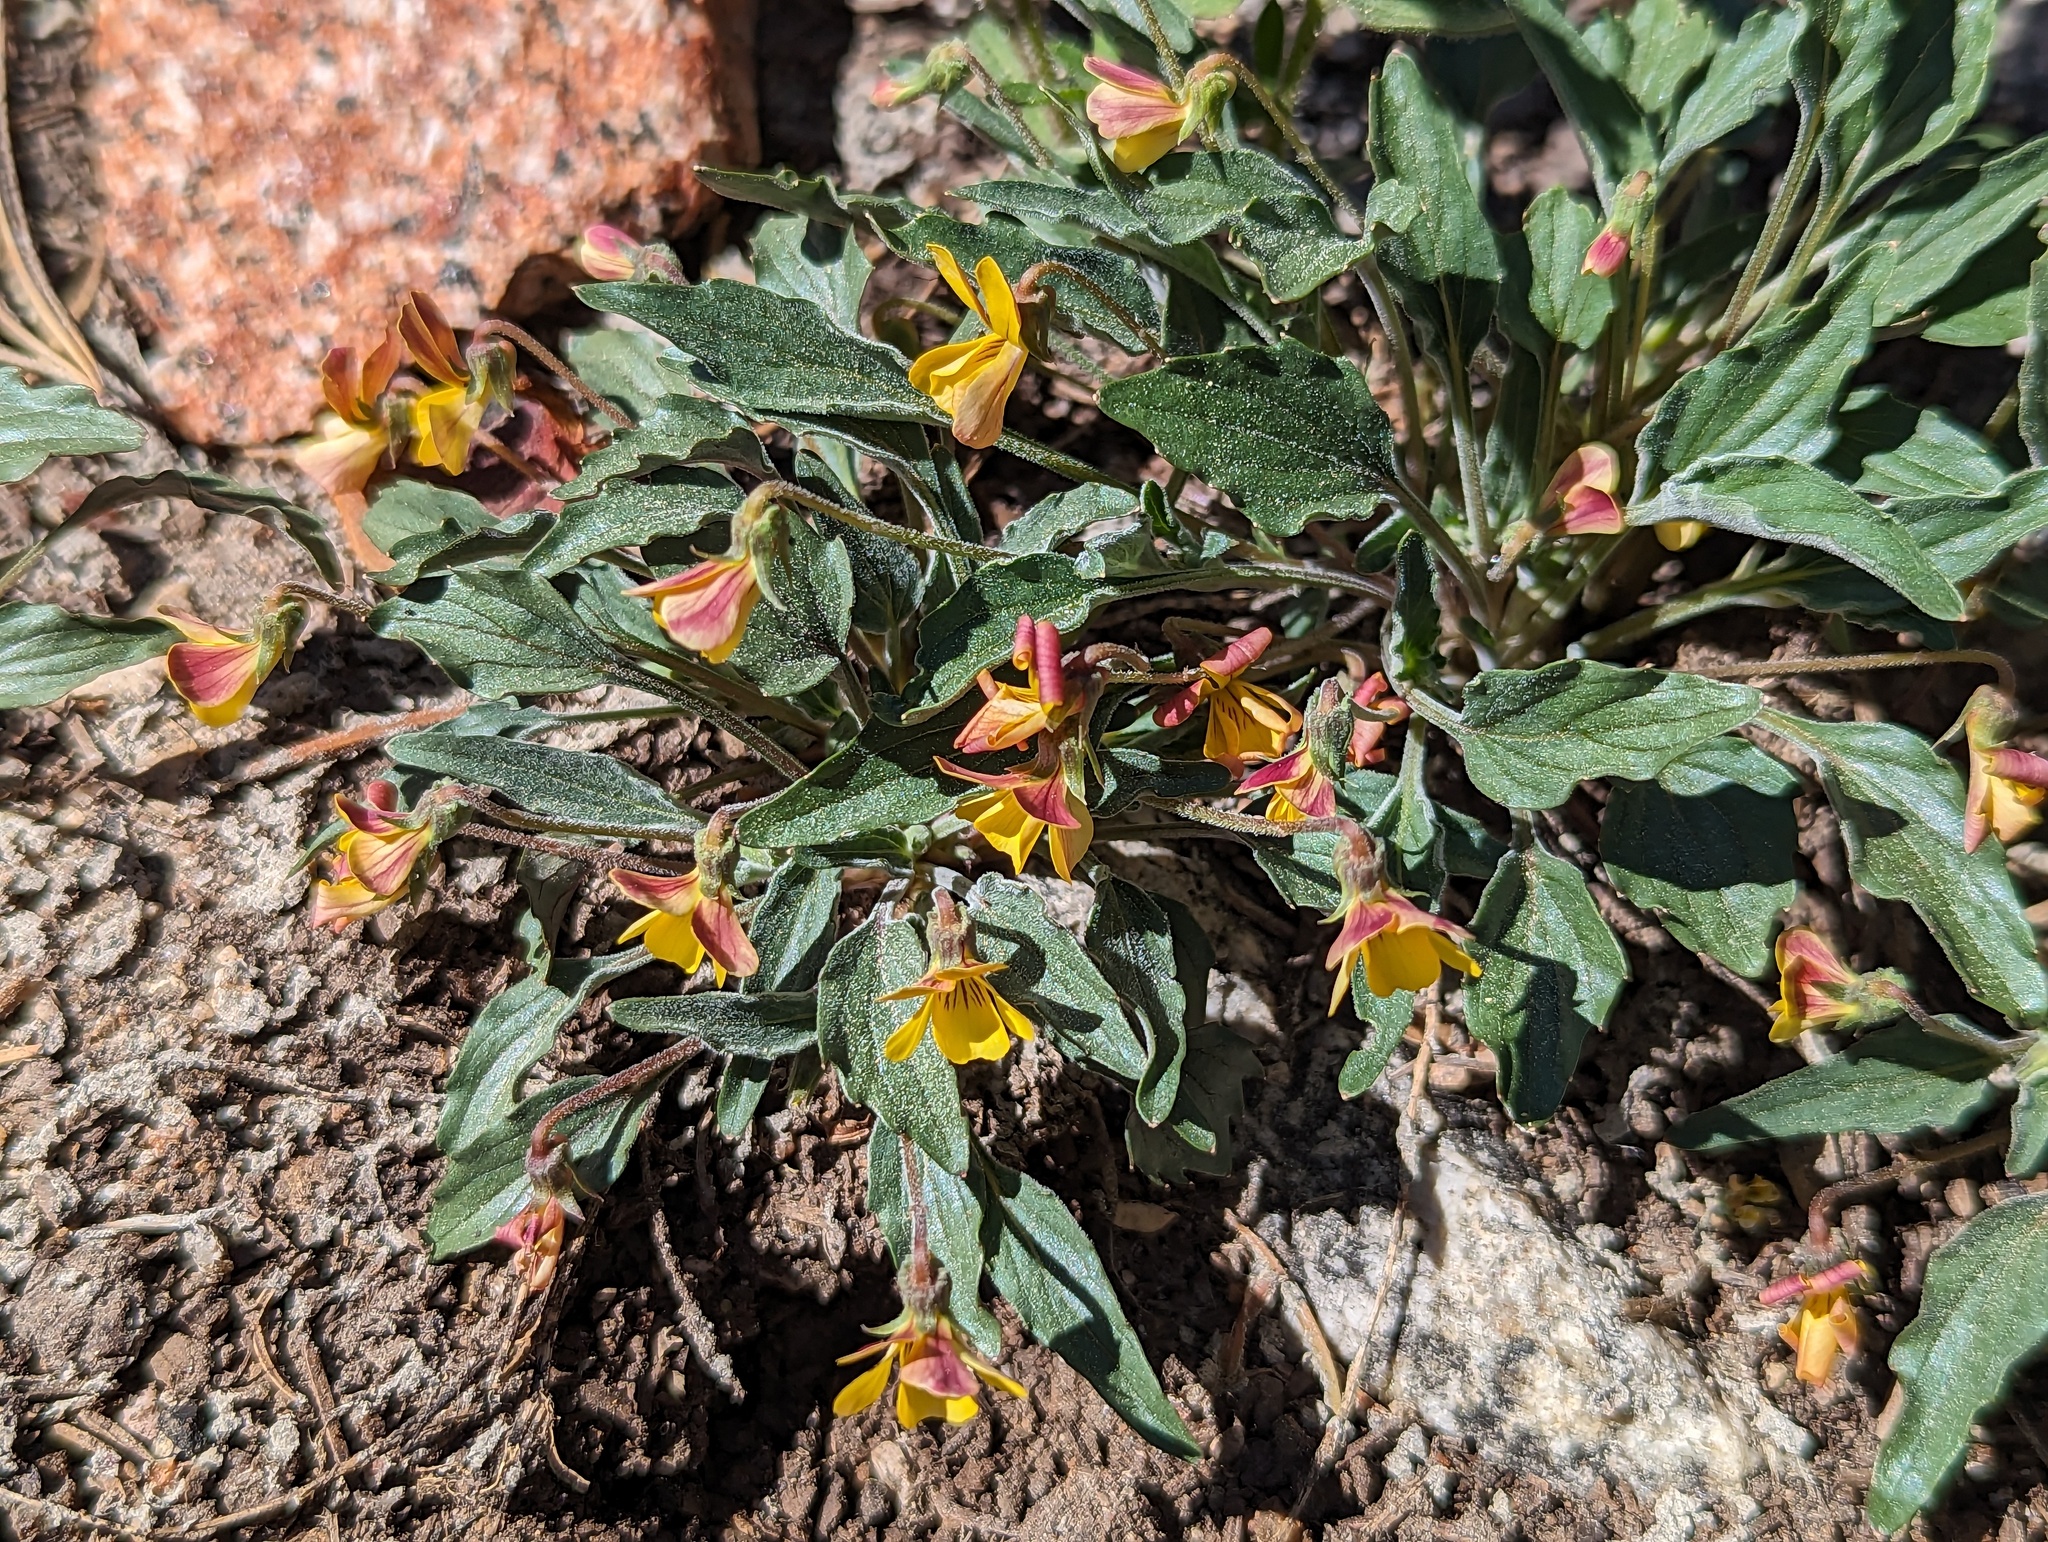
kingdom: Plantae
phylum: Tracheophyta
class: Magnoliopsida
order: Malpighiales
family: Violaceae
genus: Viola
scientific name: Viola pinetorum
